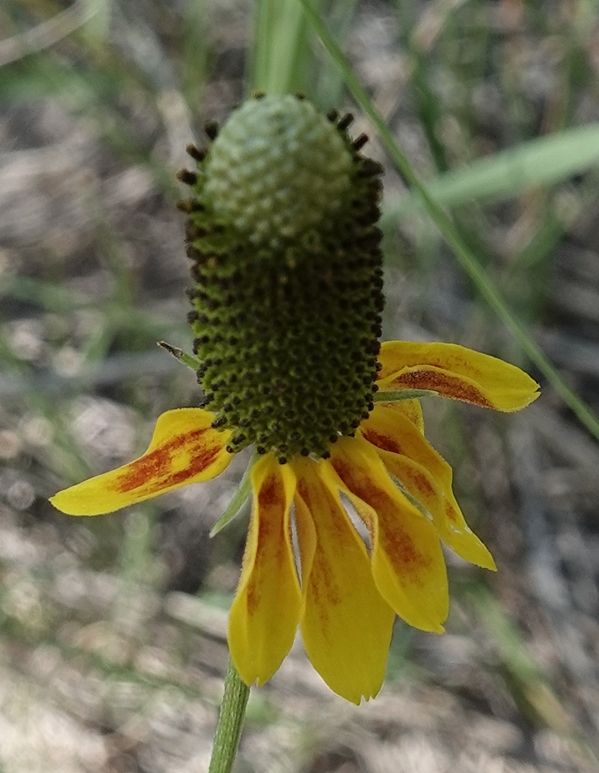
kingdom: Plantae
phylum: Tracheophyta
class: Magnoliopsida
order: Asterales
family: Asteraceae
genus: Ratibida
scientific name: Ratibida columnifera
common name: Prairie coneflower
